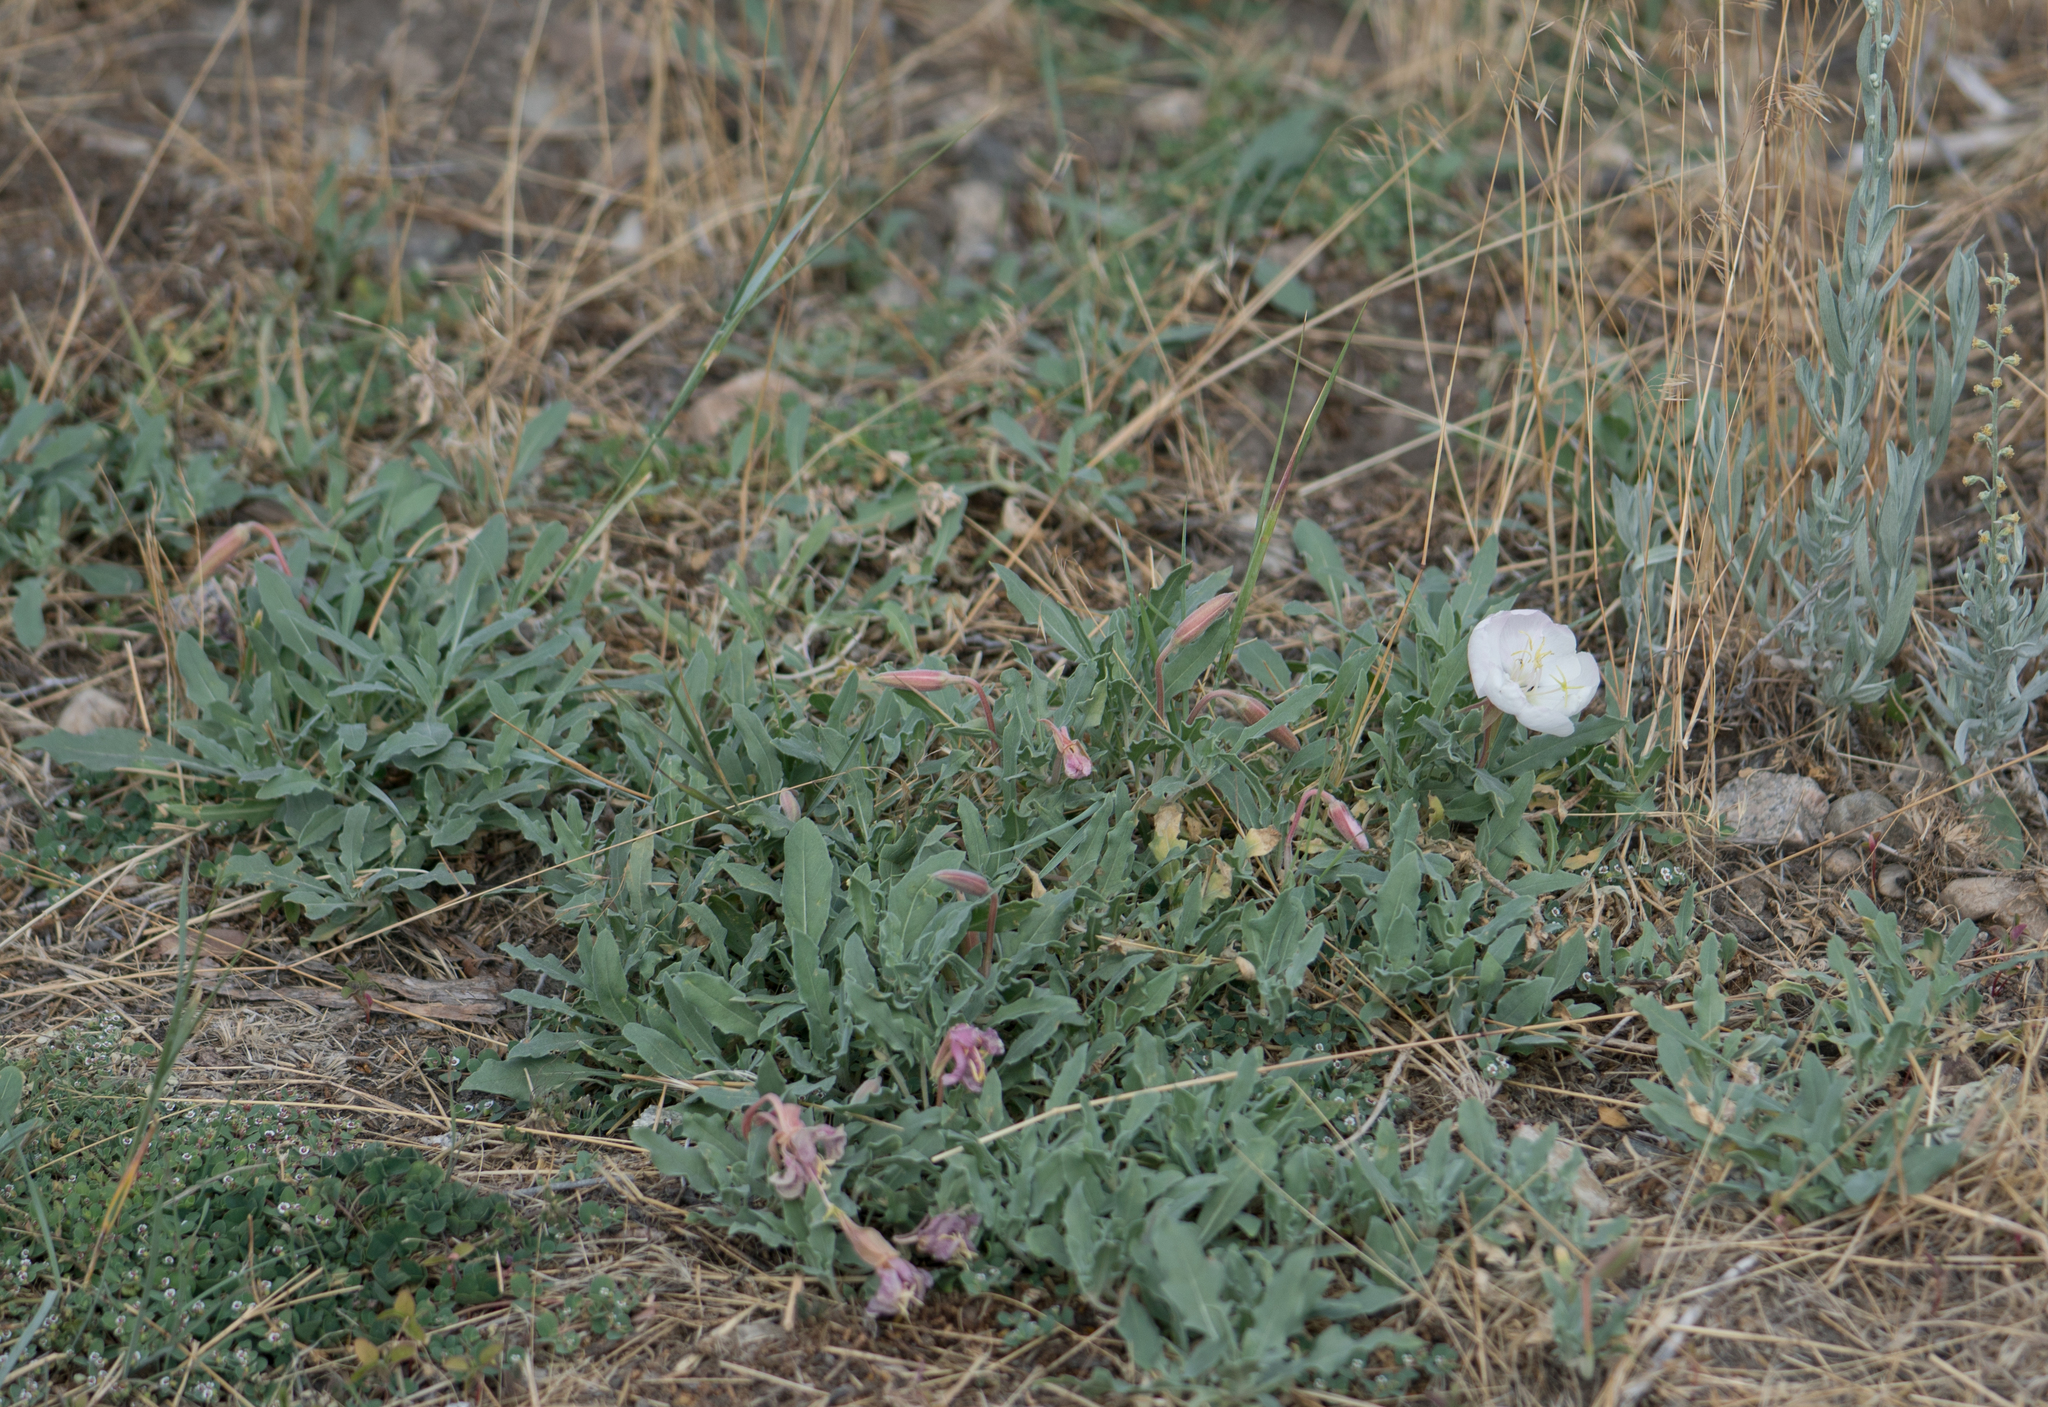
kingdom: Plantae
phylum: Tracheophyta
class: Magnoliopsida
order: Myrtales
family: Onagraceae
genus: Oenothera
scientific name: Oenothera californica
